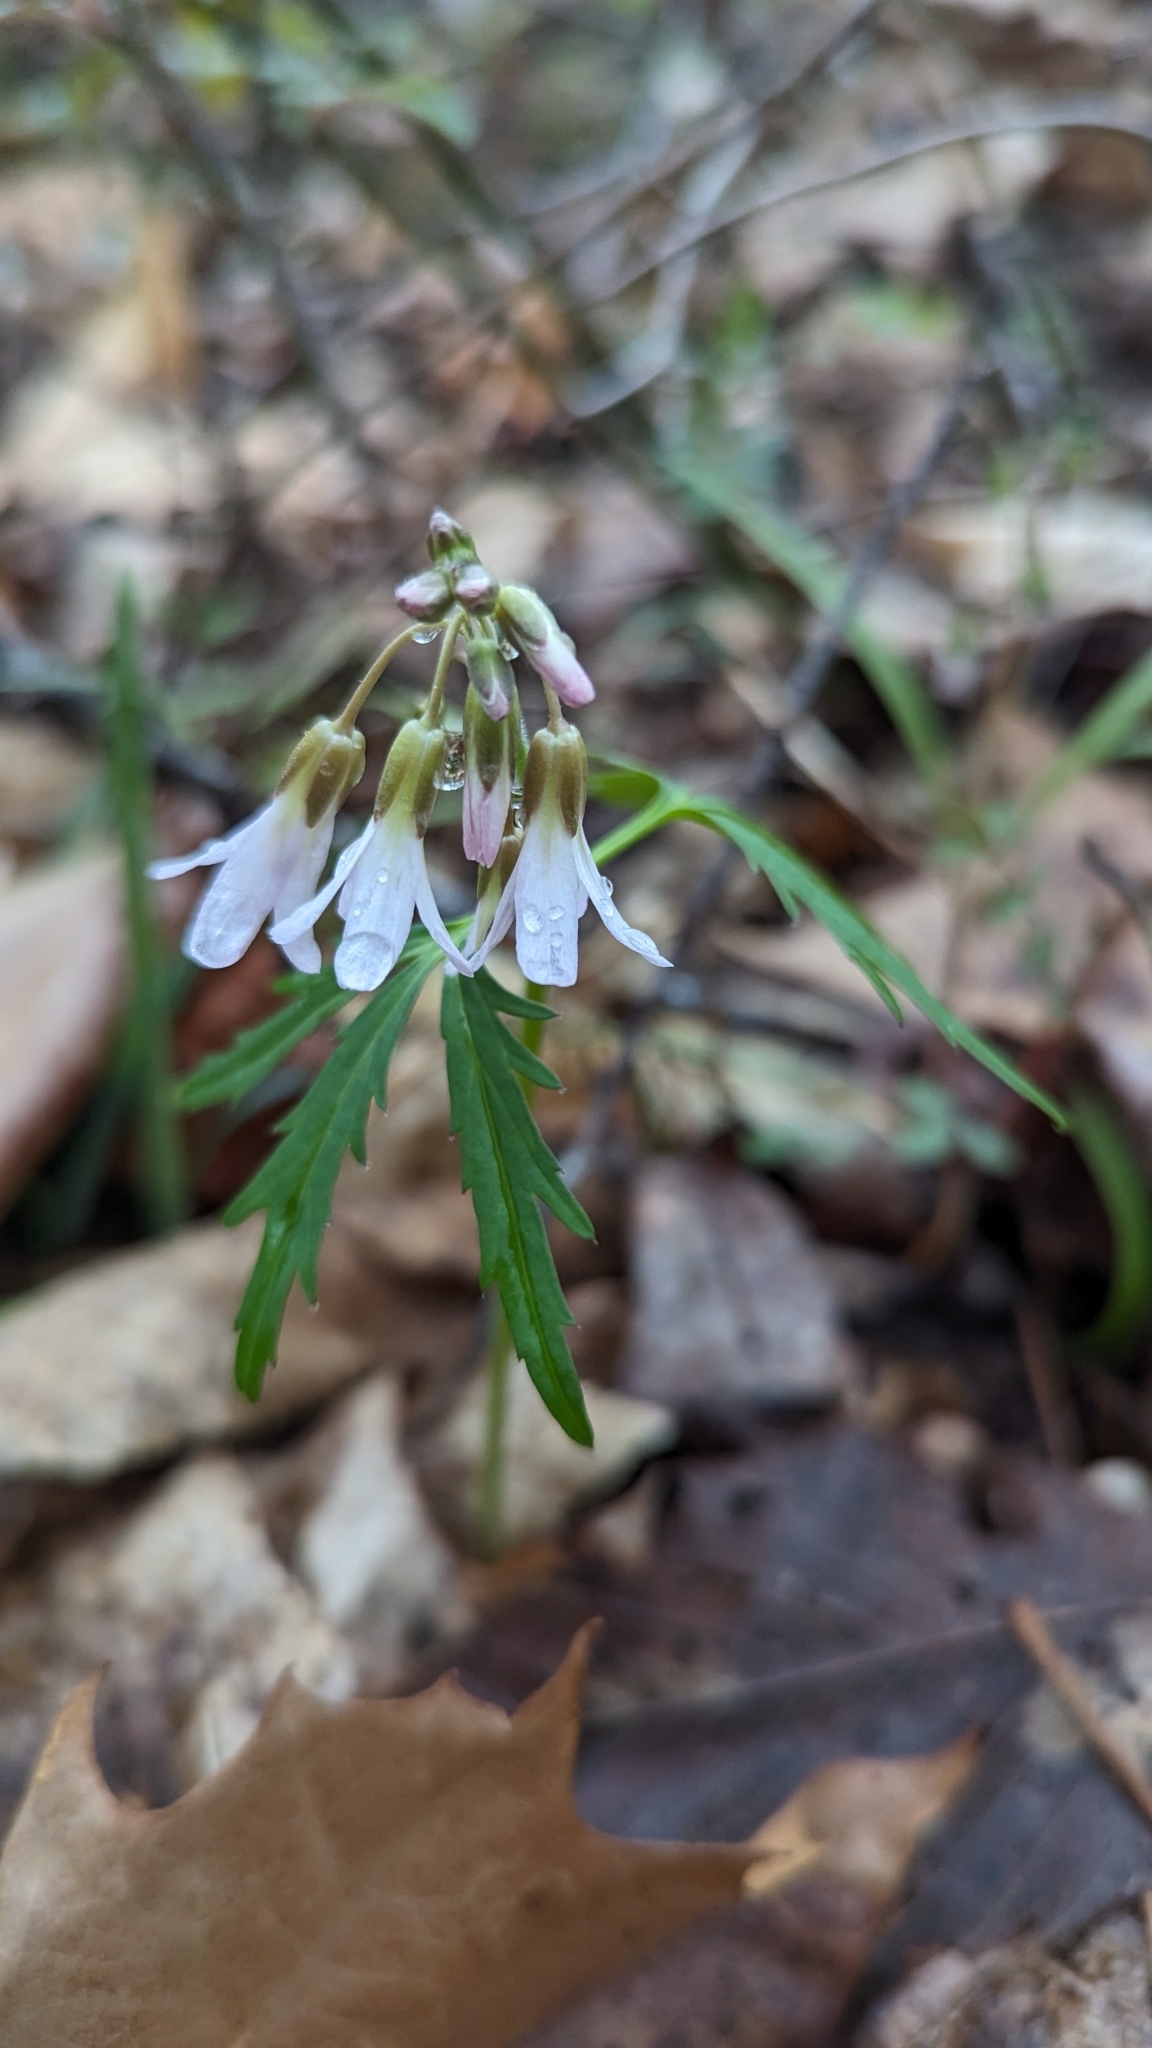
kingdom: Plantae
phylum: Tracheophyta
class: Magnoliopsida
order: Brassicales
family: Brassicaceae
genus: Cardamine
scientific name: Cardamine concatenata
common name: Cut-leaf toothcup
